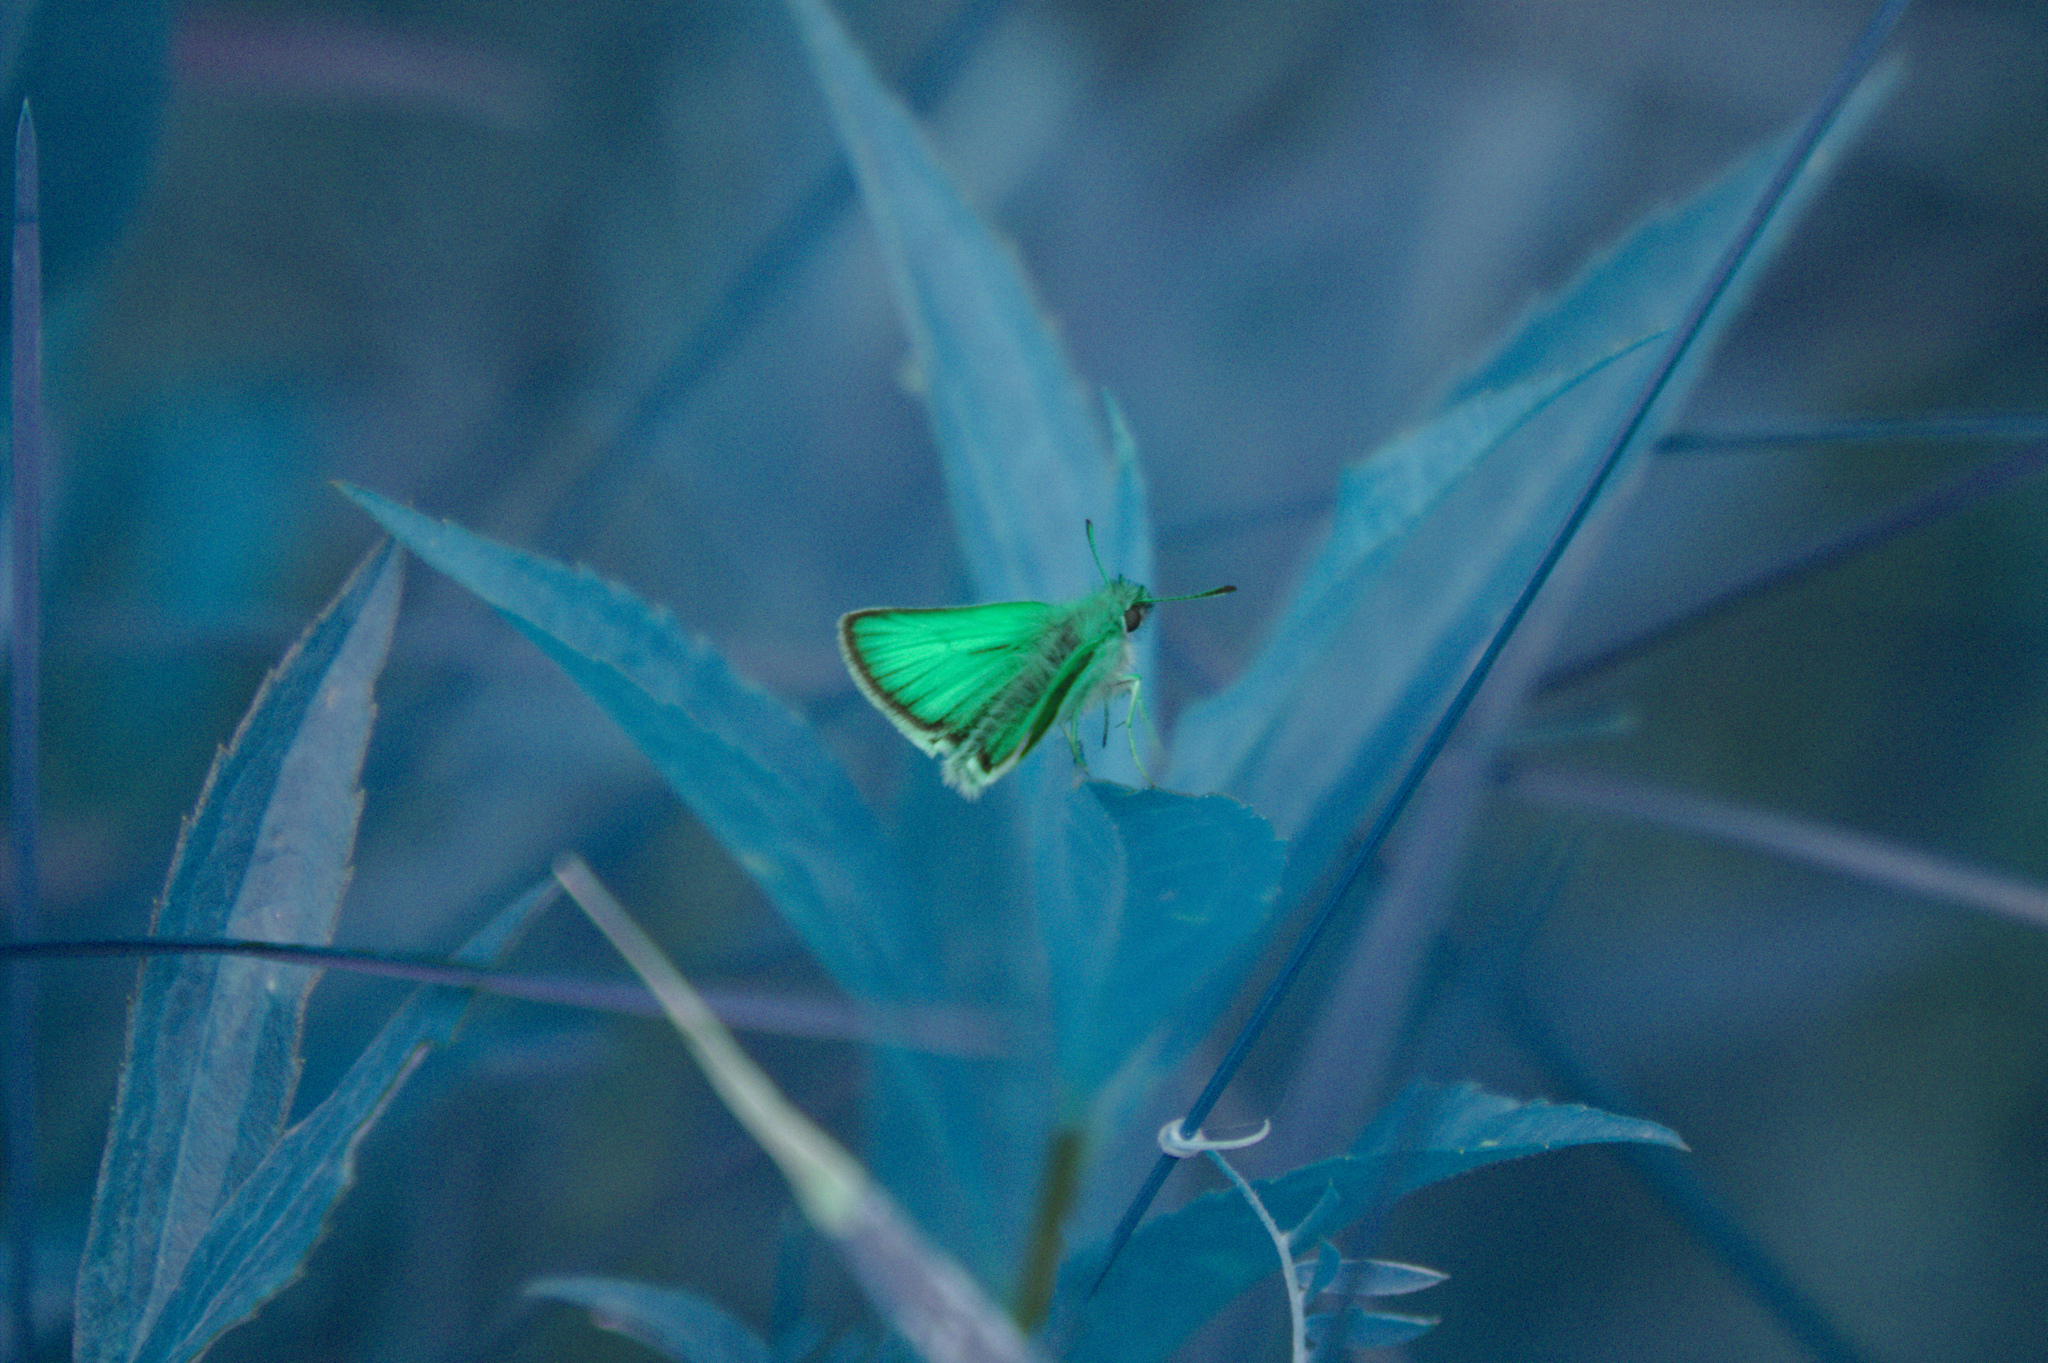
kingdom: Animalia
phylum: Arthropoda
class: Insecta
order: Lepidoptera
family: Hesperiidae
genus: Thymelicus
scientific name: Thymelicus lineola
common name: Essex skipper
